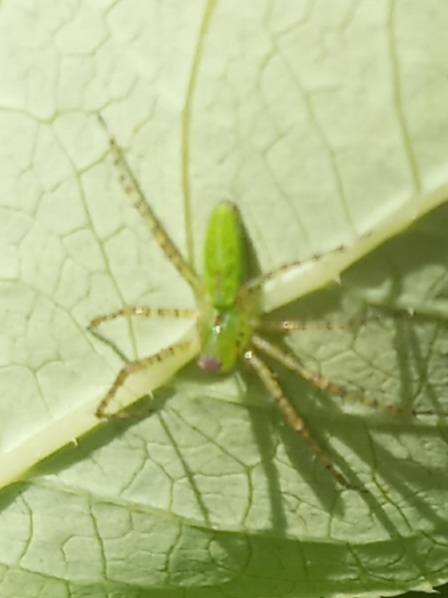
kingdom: Animalia
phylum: Arthropoda
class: Arachnida
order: Araneae
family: Oxyopidae
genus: Peucetia
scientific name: Peucetia viridans
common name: Lynx spiders
